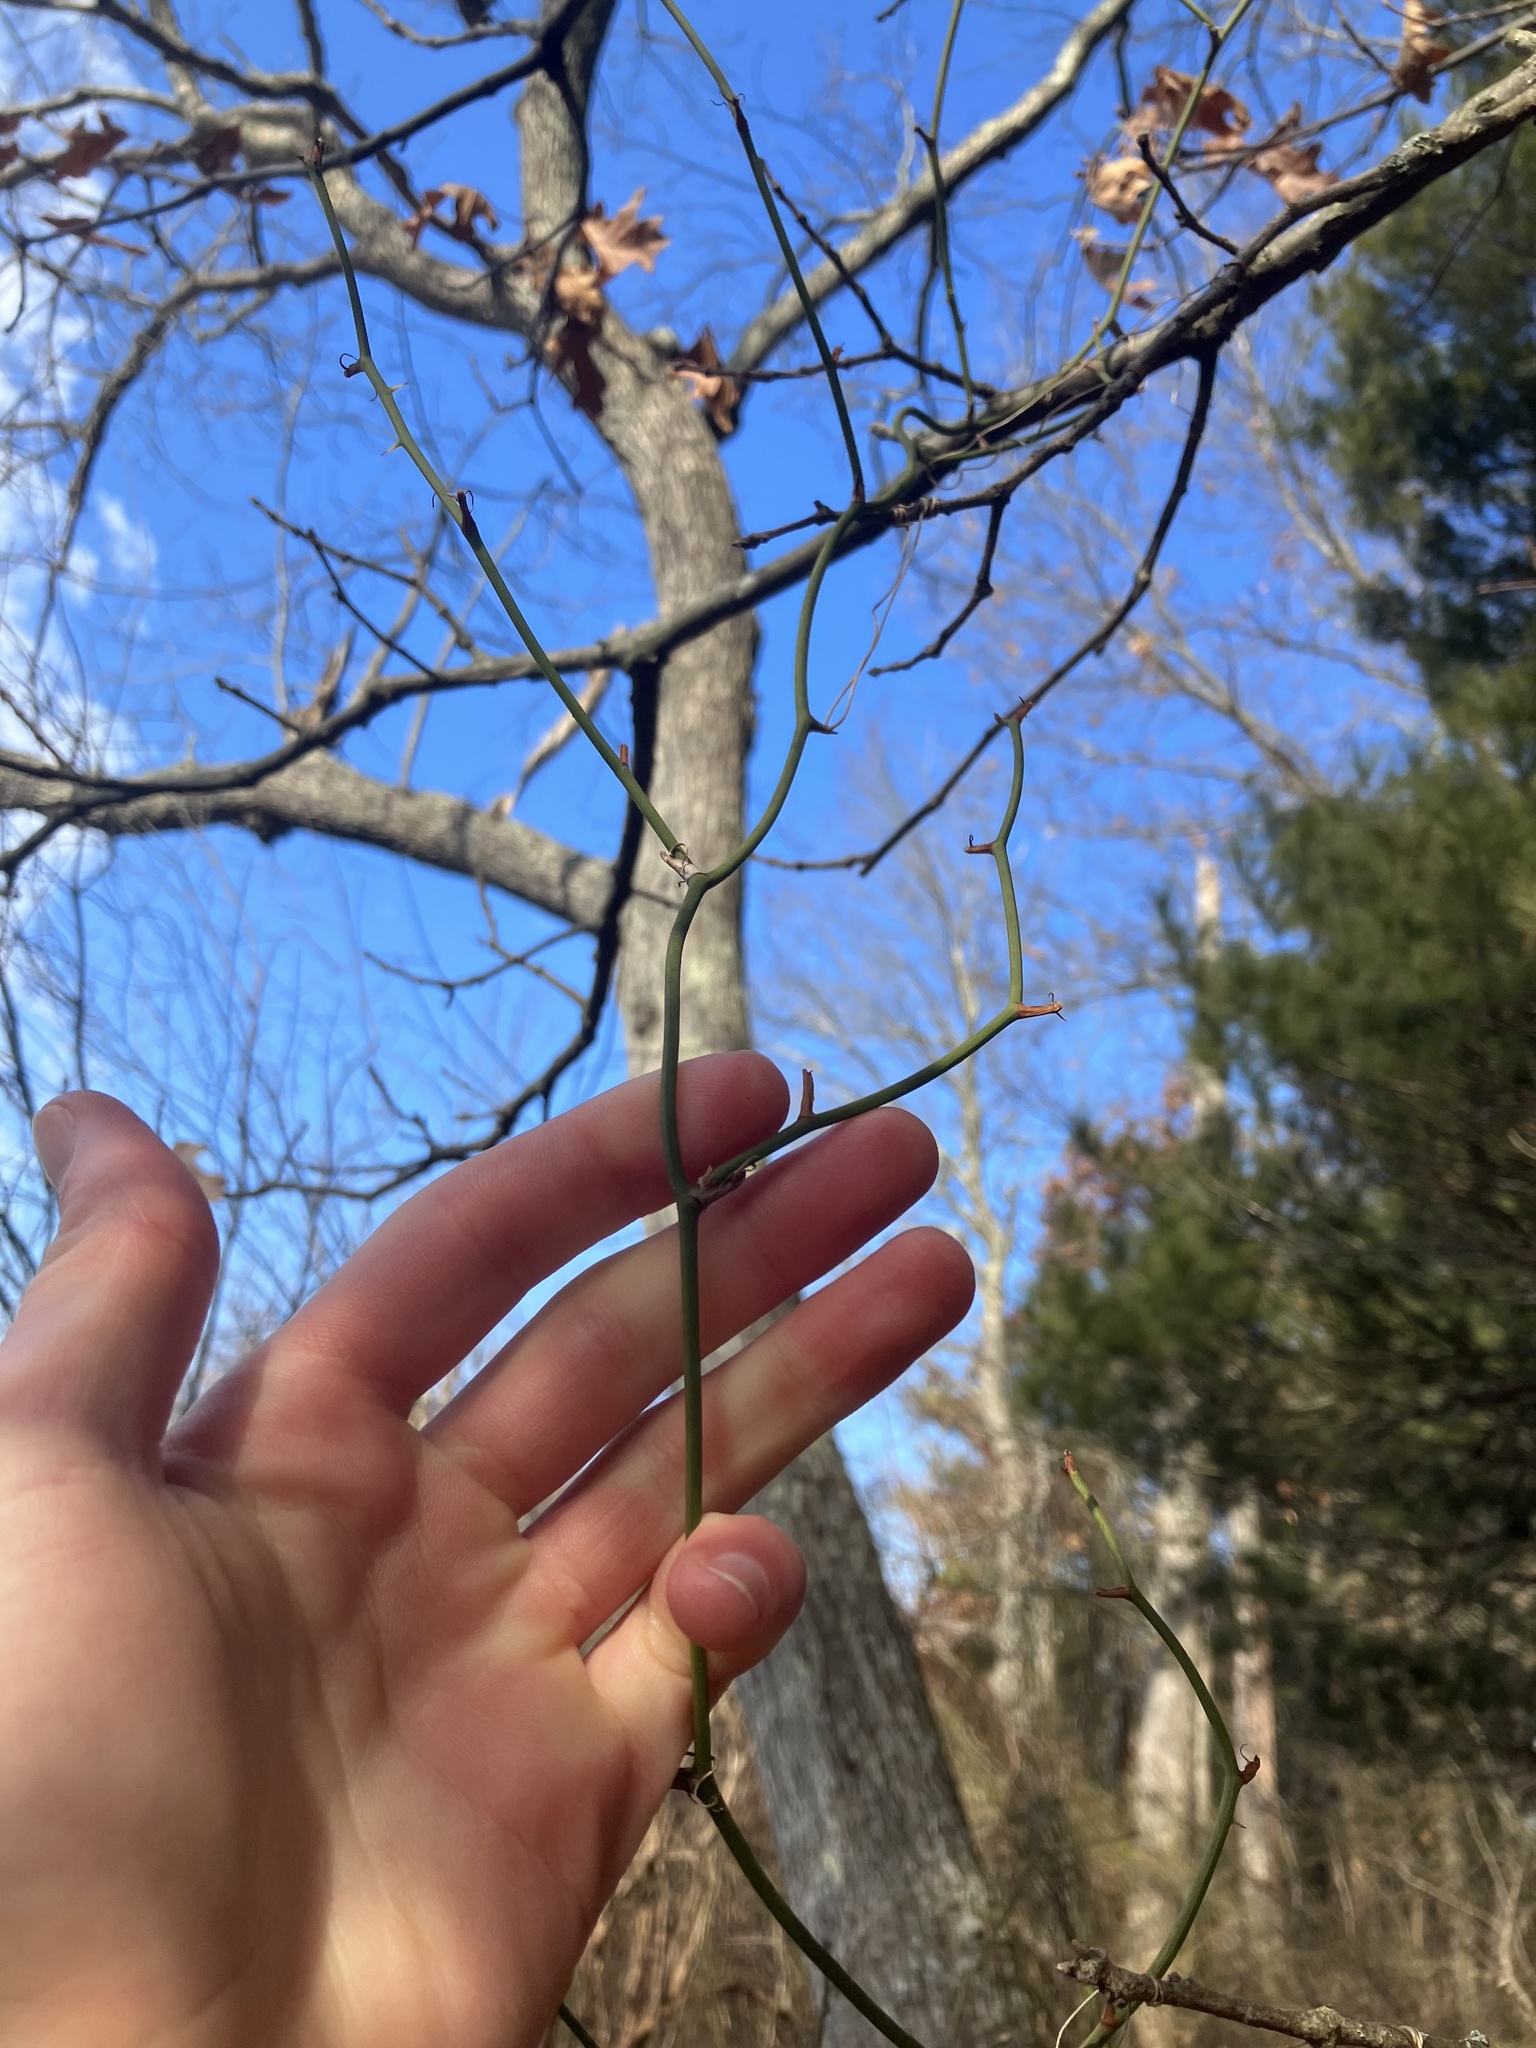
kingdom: Plantae
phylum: Tracheophyta
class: Liliopsida
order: Liliales
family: Smilacaceae
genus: Smilax
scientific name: Smilax rotundifolia
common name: Bullbriar
